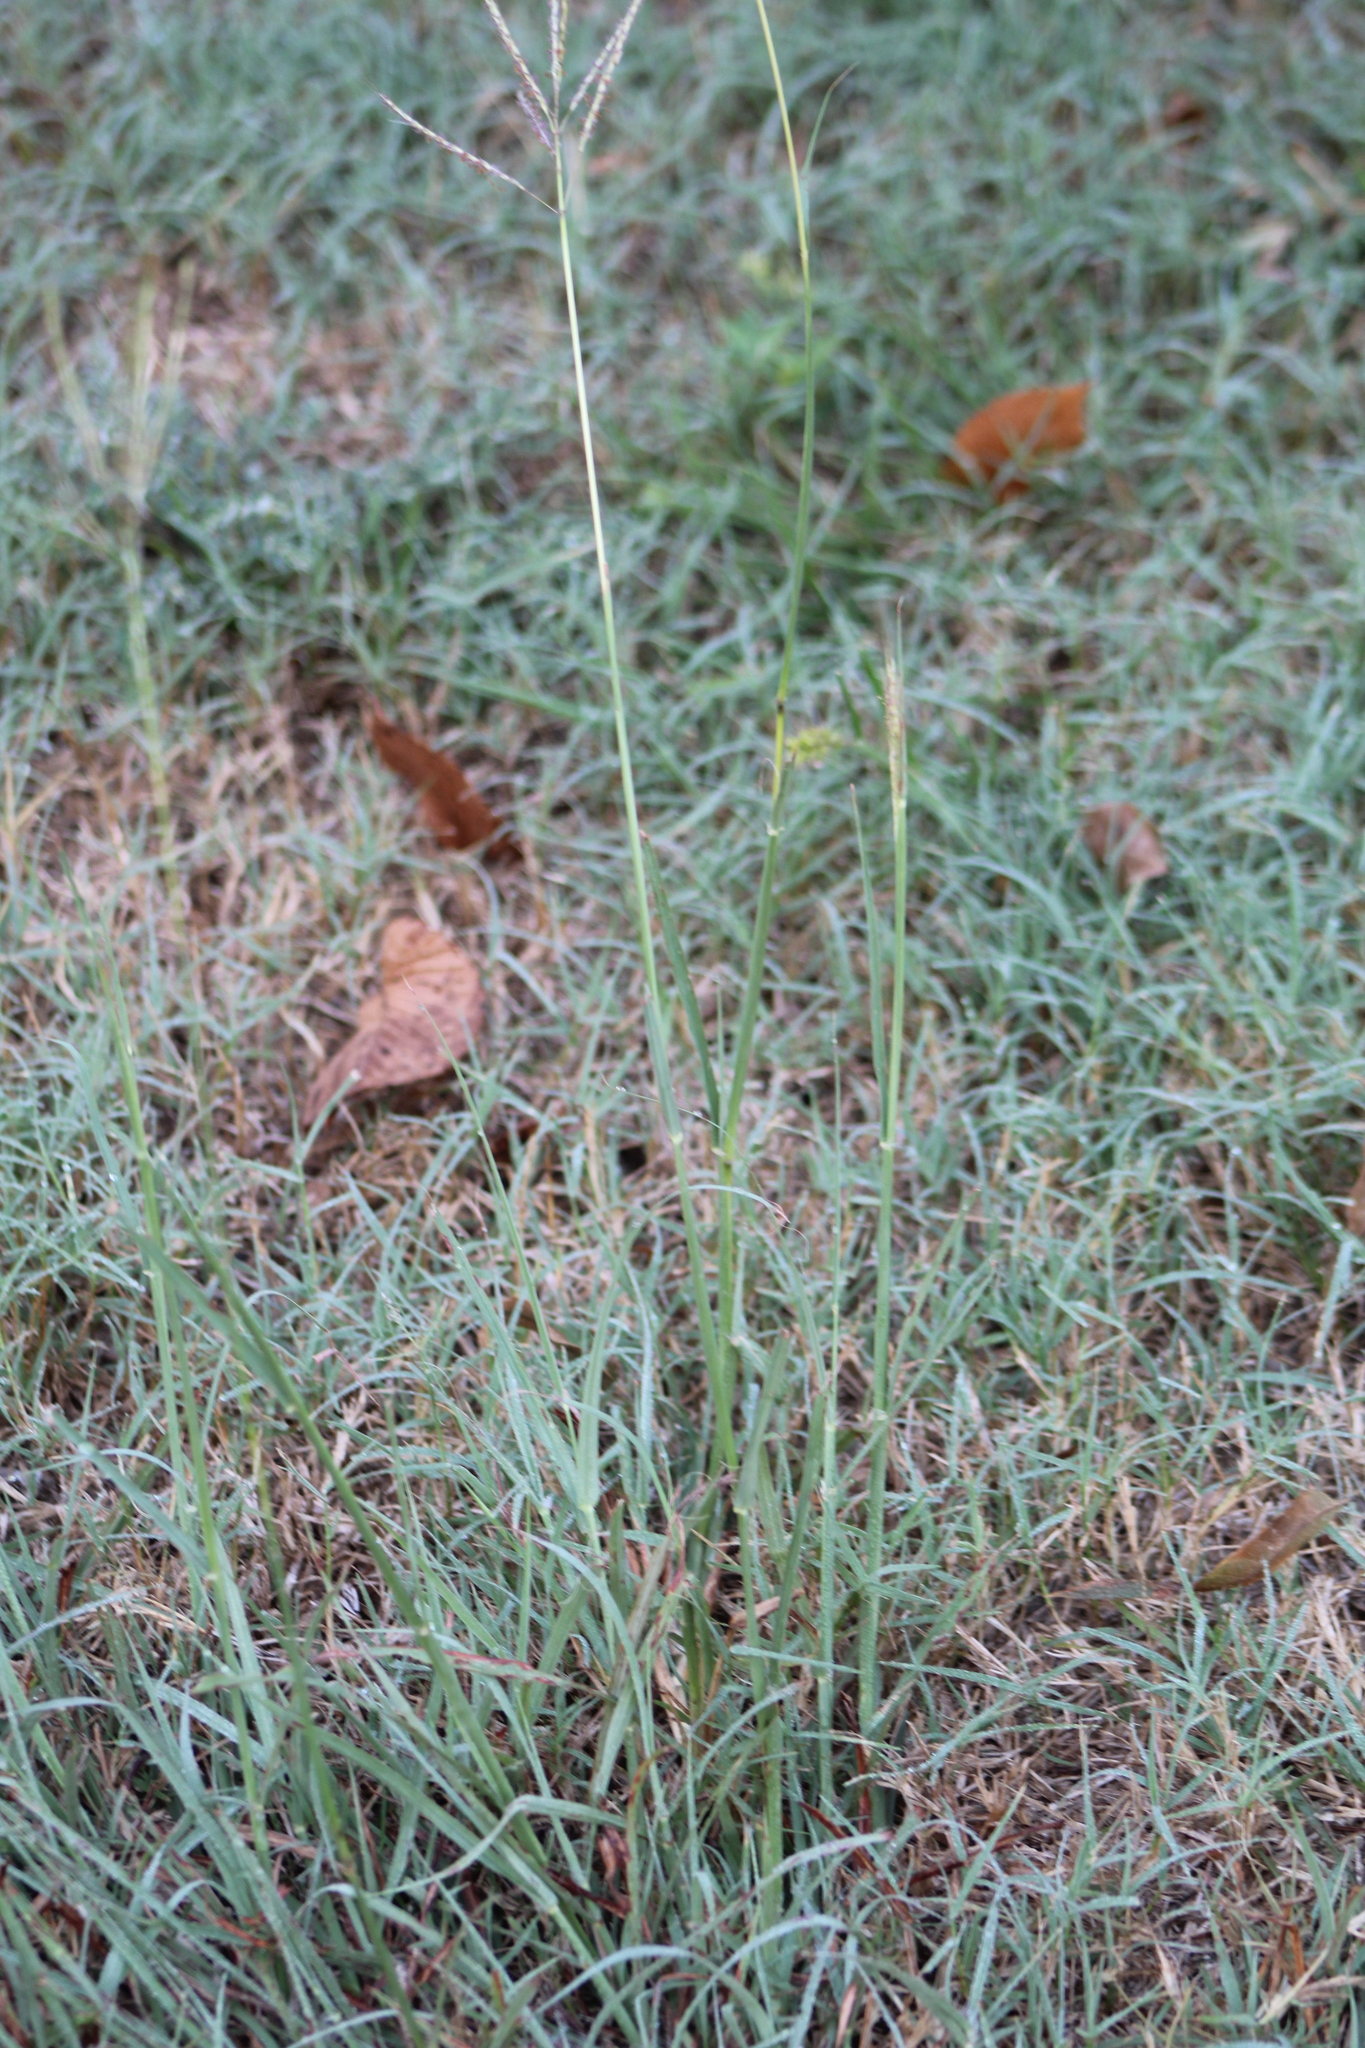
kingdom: Plantae
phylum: Tracheophyta
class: Liliopsida
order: Poales
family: Poaceae
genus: Bothriochloa
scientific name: Bothriochloa ischaemum
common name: Yellow bluestem
